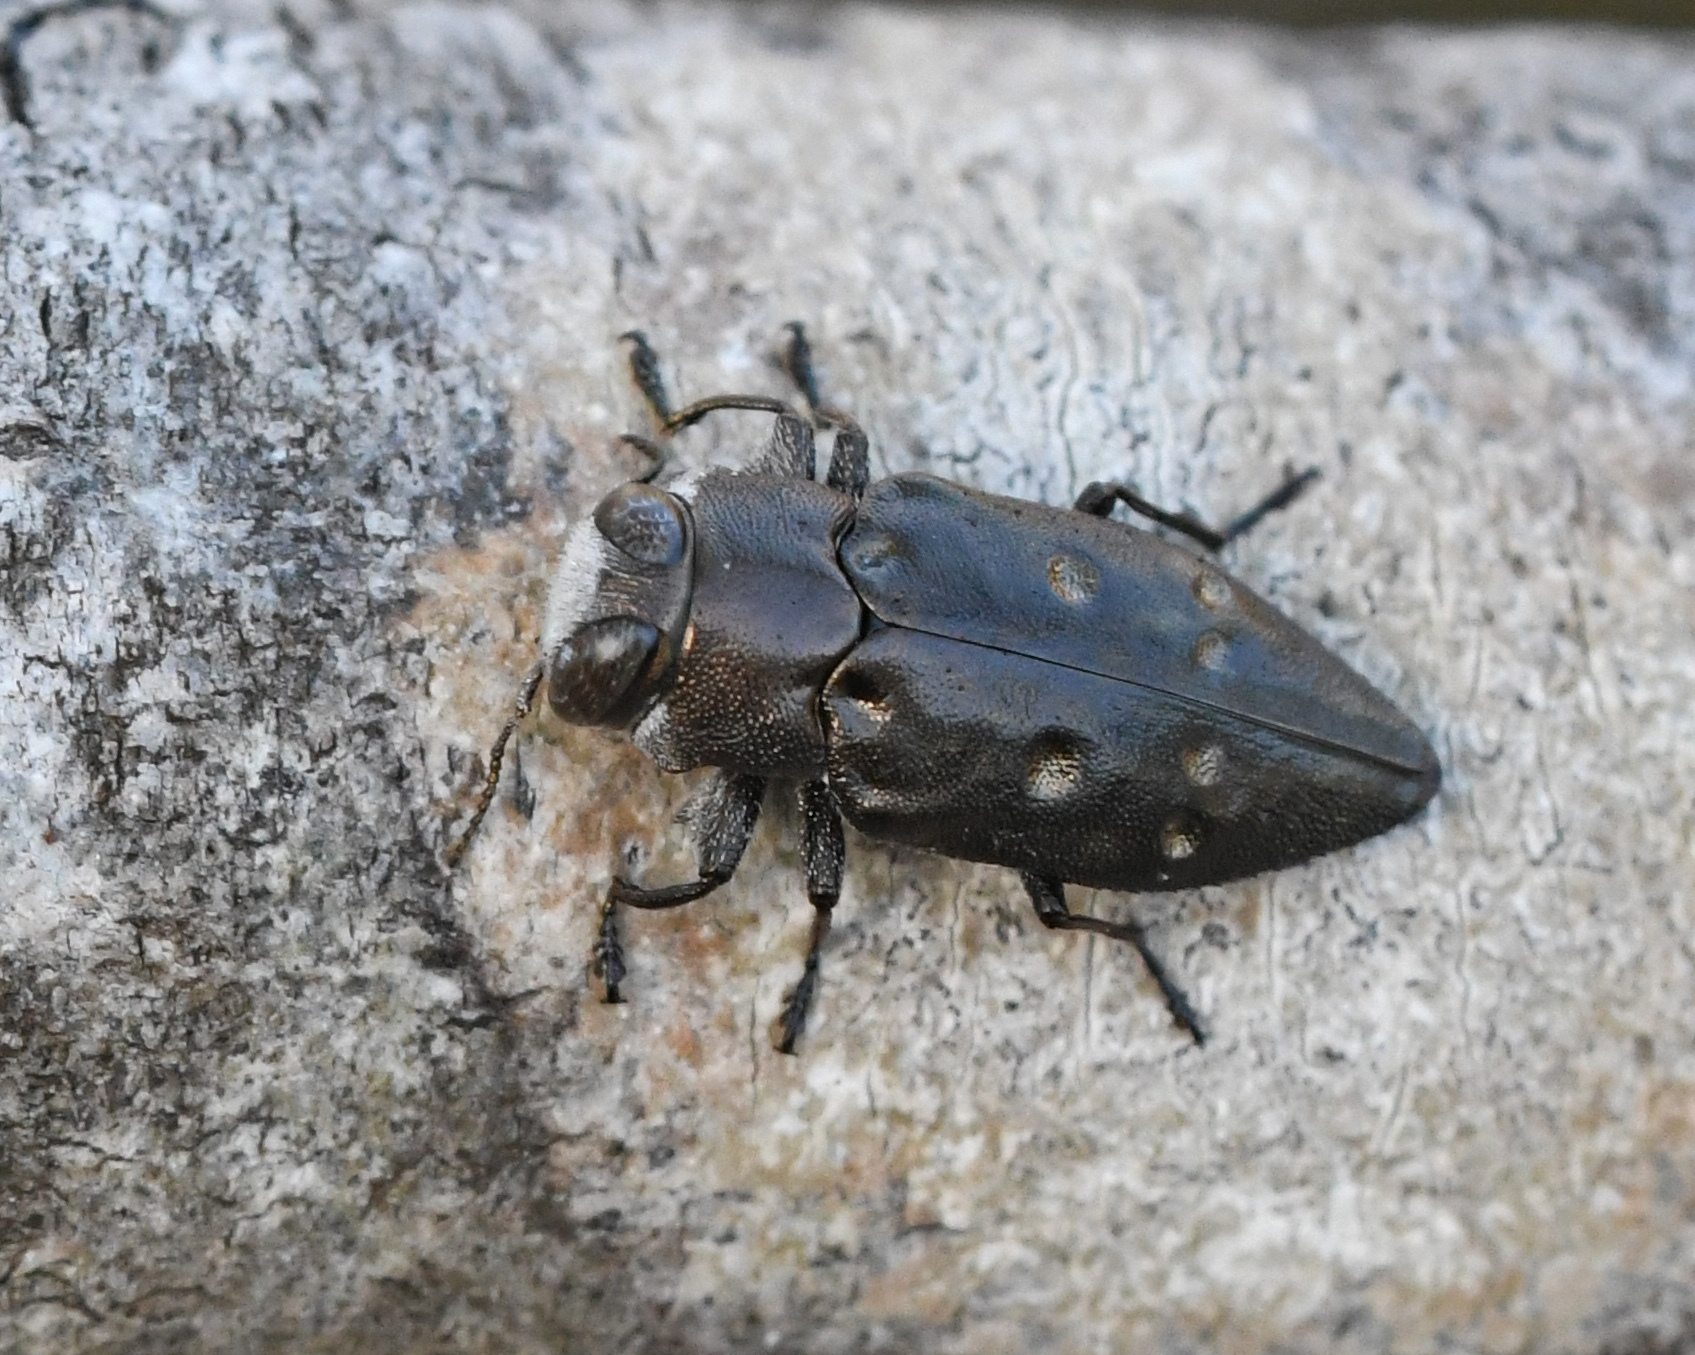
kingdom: Animalia
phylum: Arthropoda
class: Insecta
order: Coleoptera
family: Buprestidae
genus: Chrysobothris
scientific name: Chrysobothris megacephala
